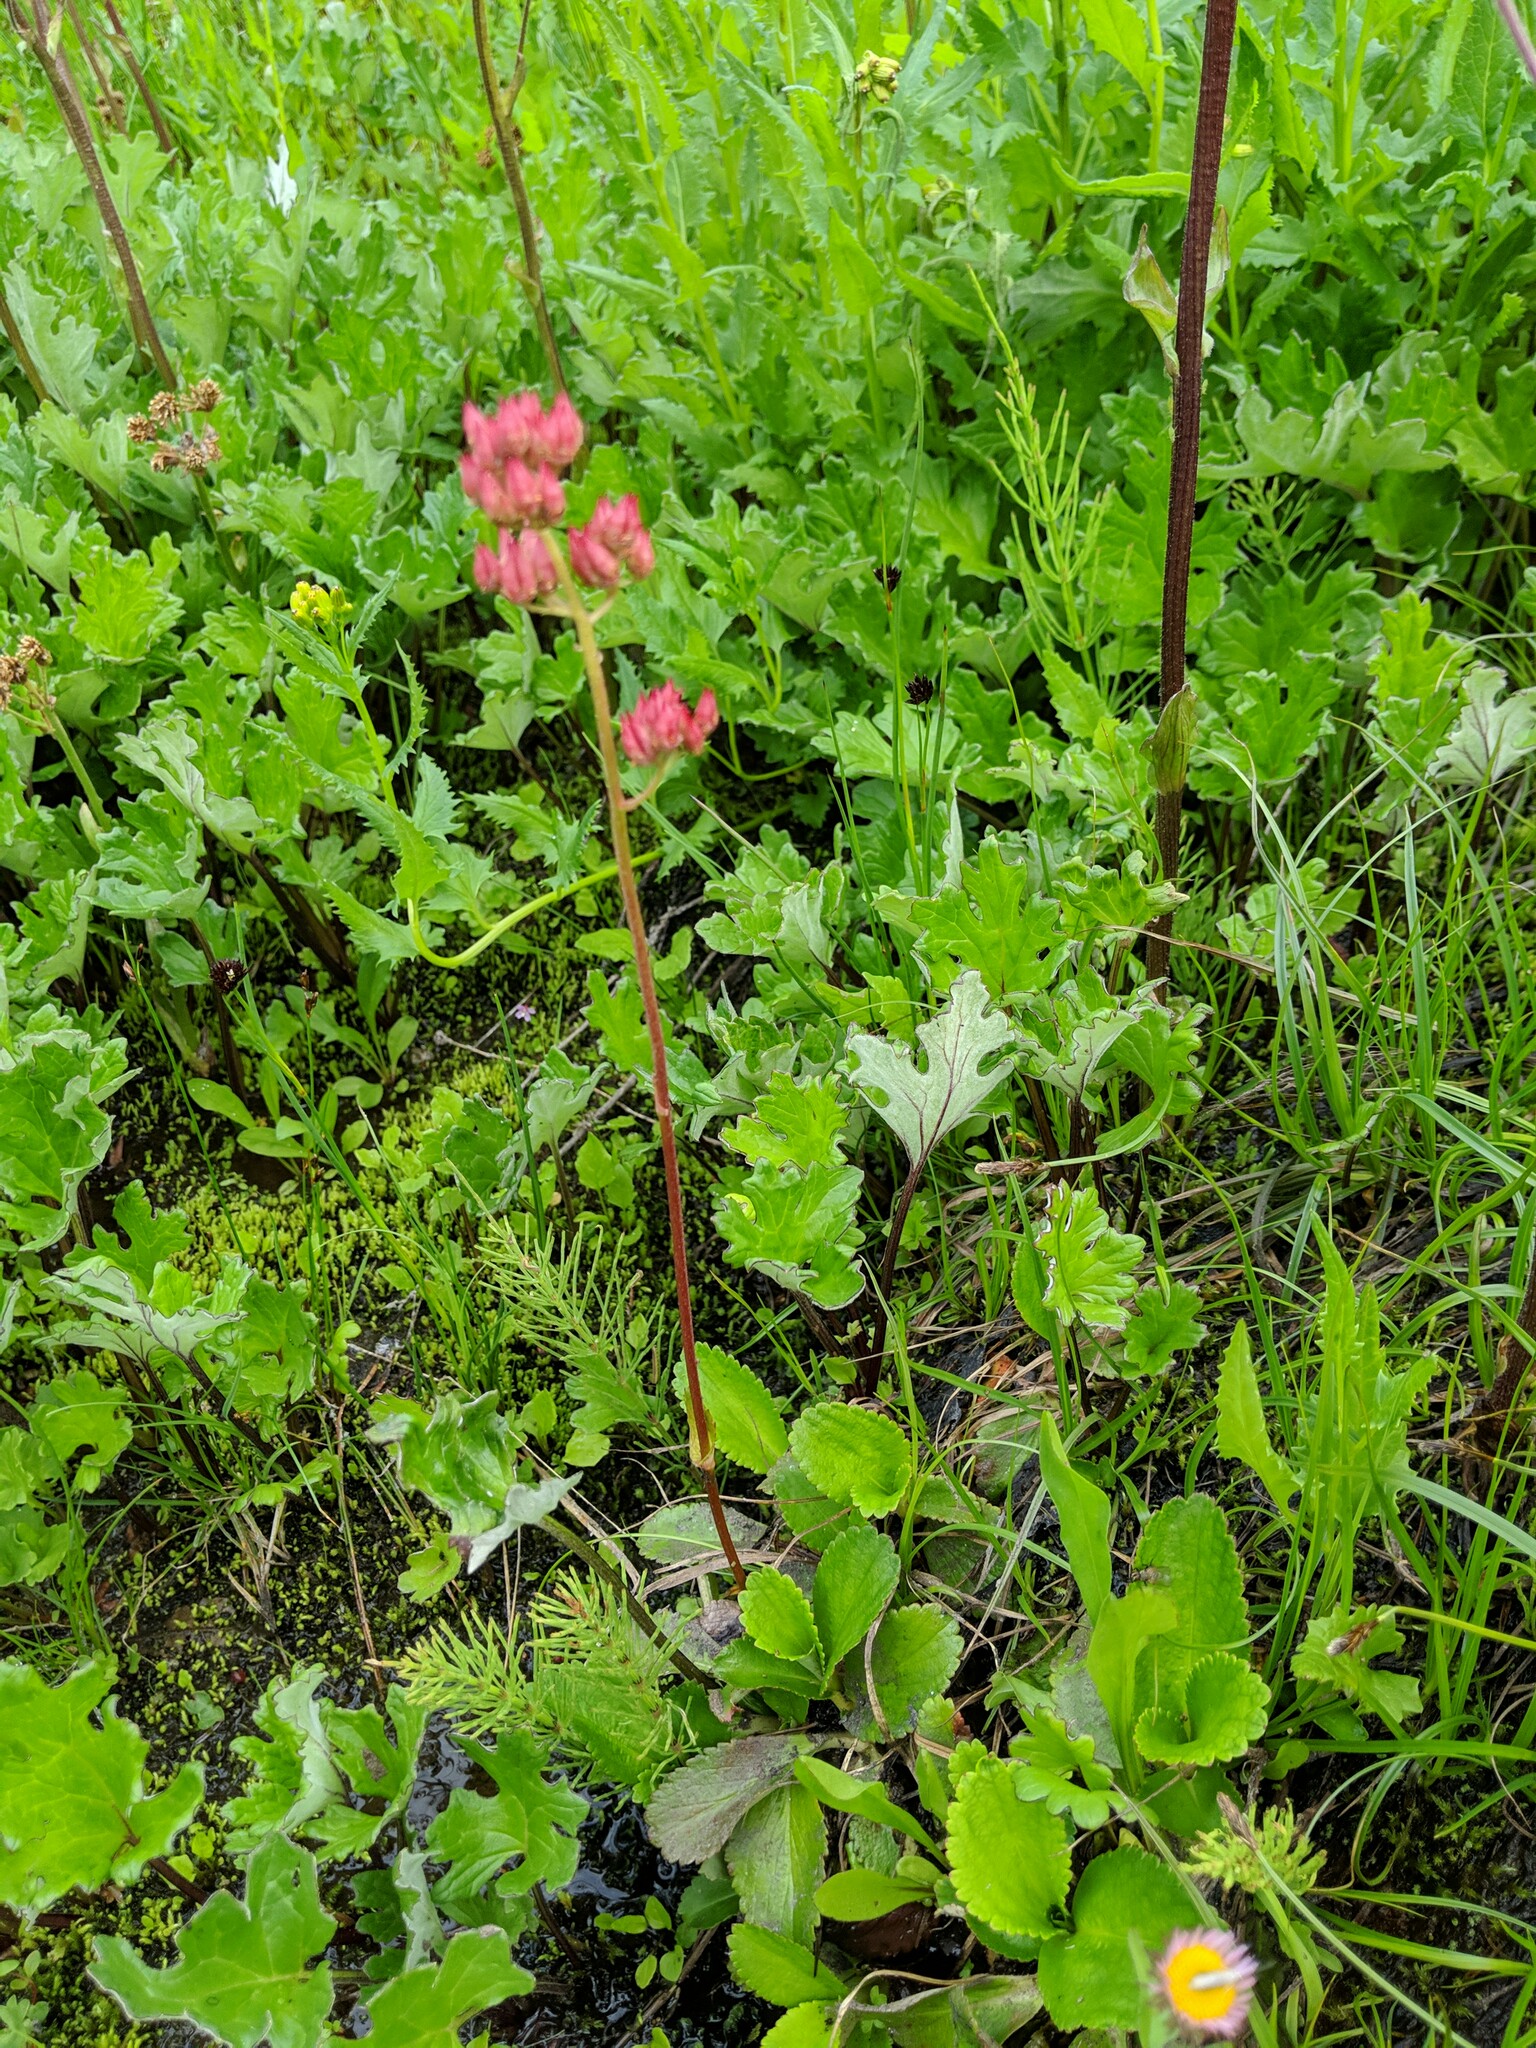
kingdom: Plantae
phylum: Tracheophyta
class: Magnoliopsida
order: Saxifragales
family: Saxifragaceae
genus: Leptarrhena
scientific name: Leptarrhena pyrolifolia
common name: Leatherleaf-saxifrage
